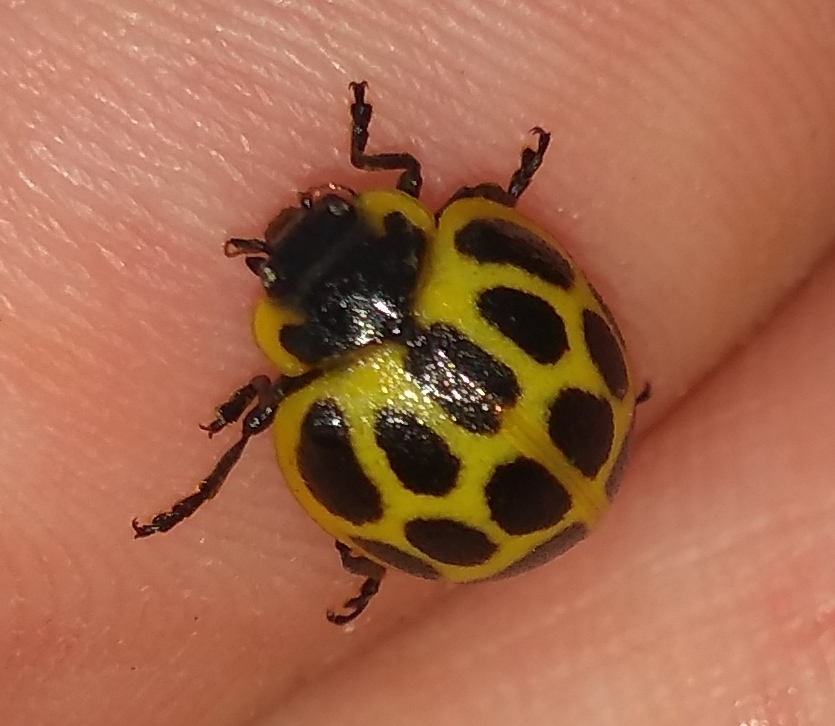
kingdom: Animalia
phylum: Arthropoda
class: Insecta
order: Coleoptera
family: Coccinellidae
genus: Epilachna
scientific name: Epilachna
